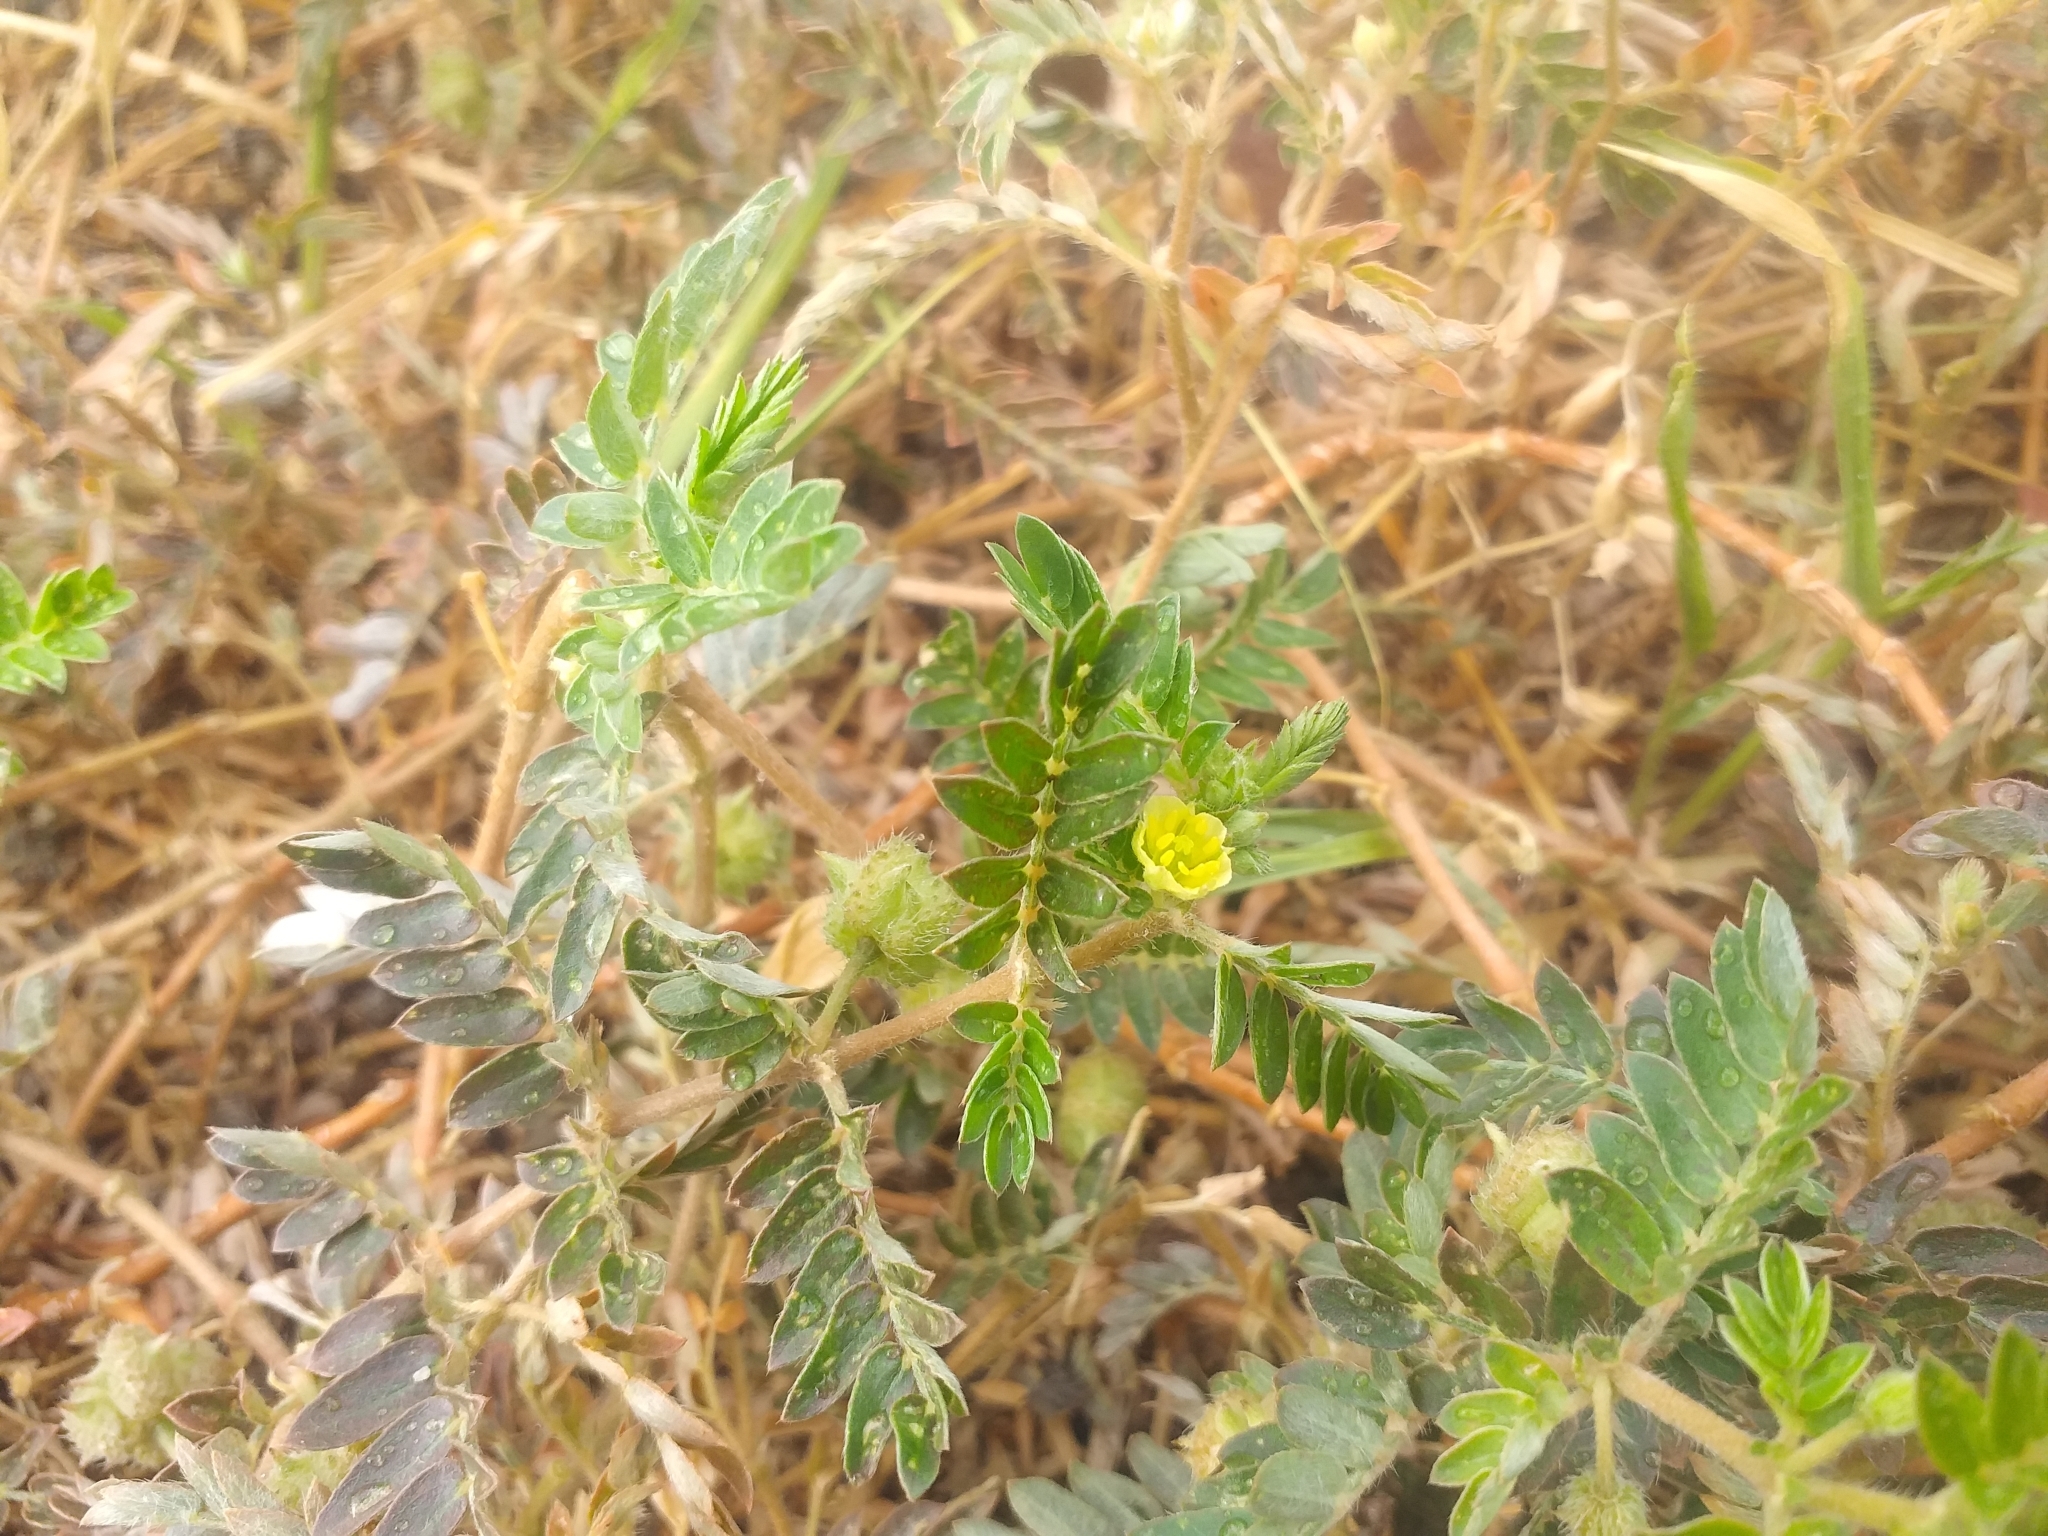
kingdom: Plantae
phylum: Tracheophyta
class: Magnoliopsida
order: Zygophyllales
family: Zygophyllaceae
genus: Tribulus
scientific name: Tribulus terrestris
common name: Puncturevine
